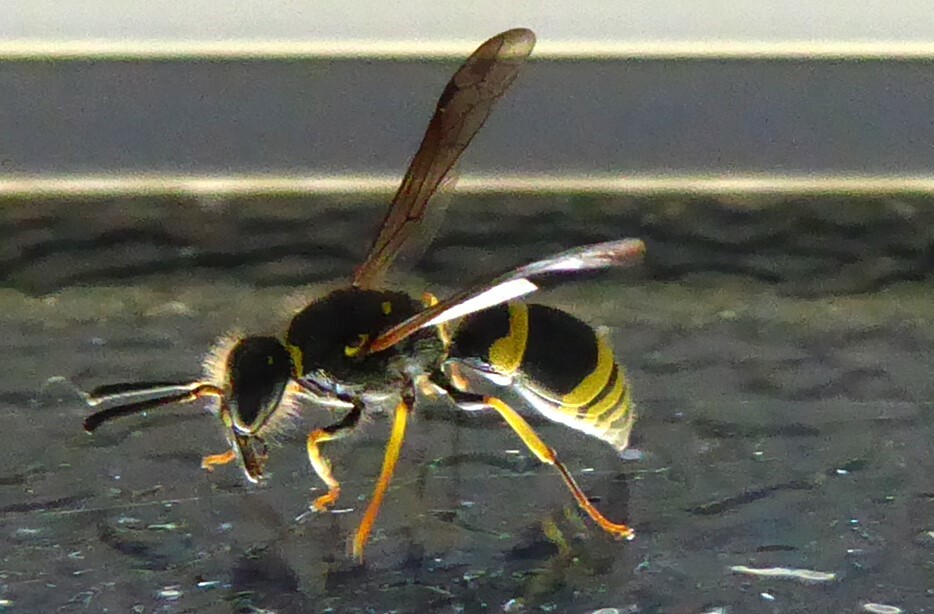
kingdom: Animalia
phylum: Arthropoda
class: Insecta
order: Hymenoptera
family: Vespidae
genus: Ancistrocerus
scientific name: Ancistrocerus gazella
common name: European tube wasp
